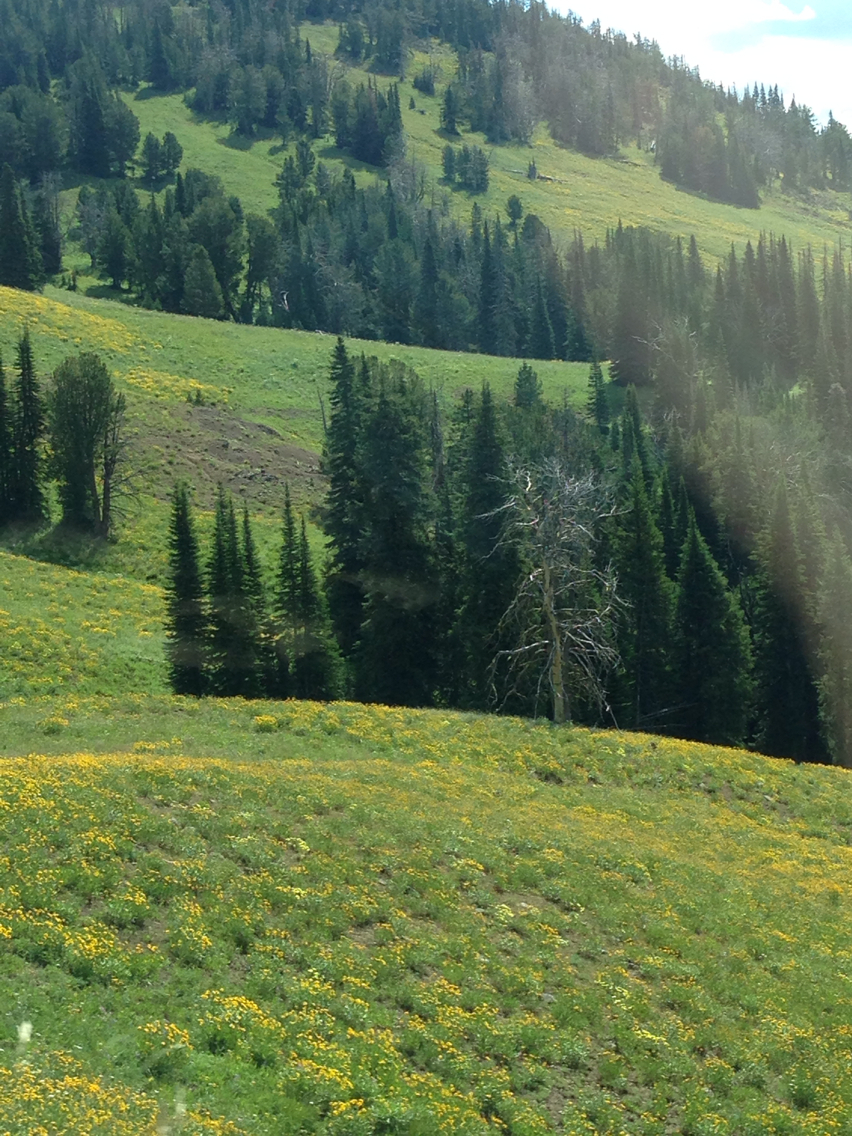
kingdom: Plantae
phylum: Tracheophyta
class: Pinopsida
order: Pinales
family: Pinaceae
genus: Abies
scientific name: Abies lasiocarpa
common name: Subalpine fir
